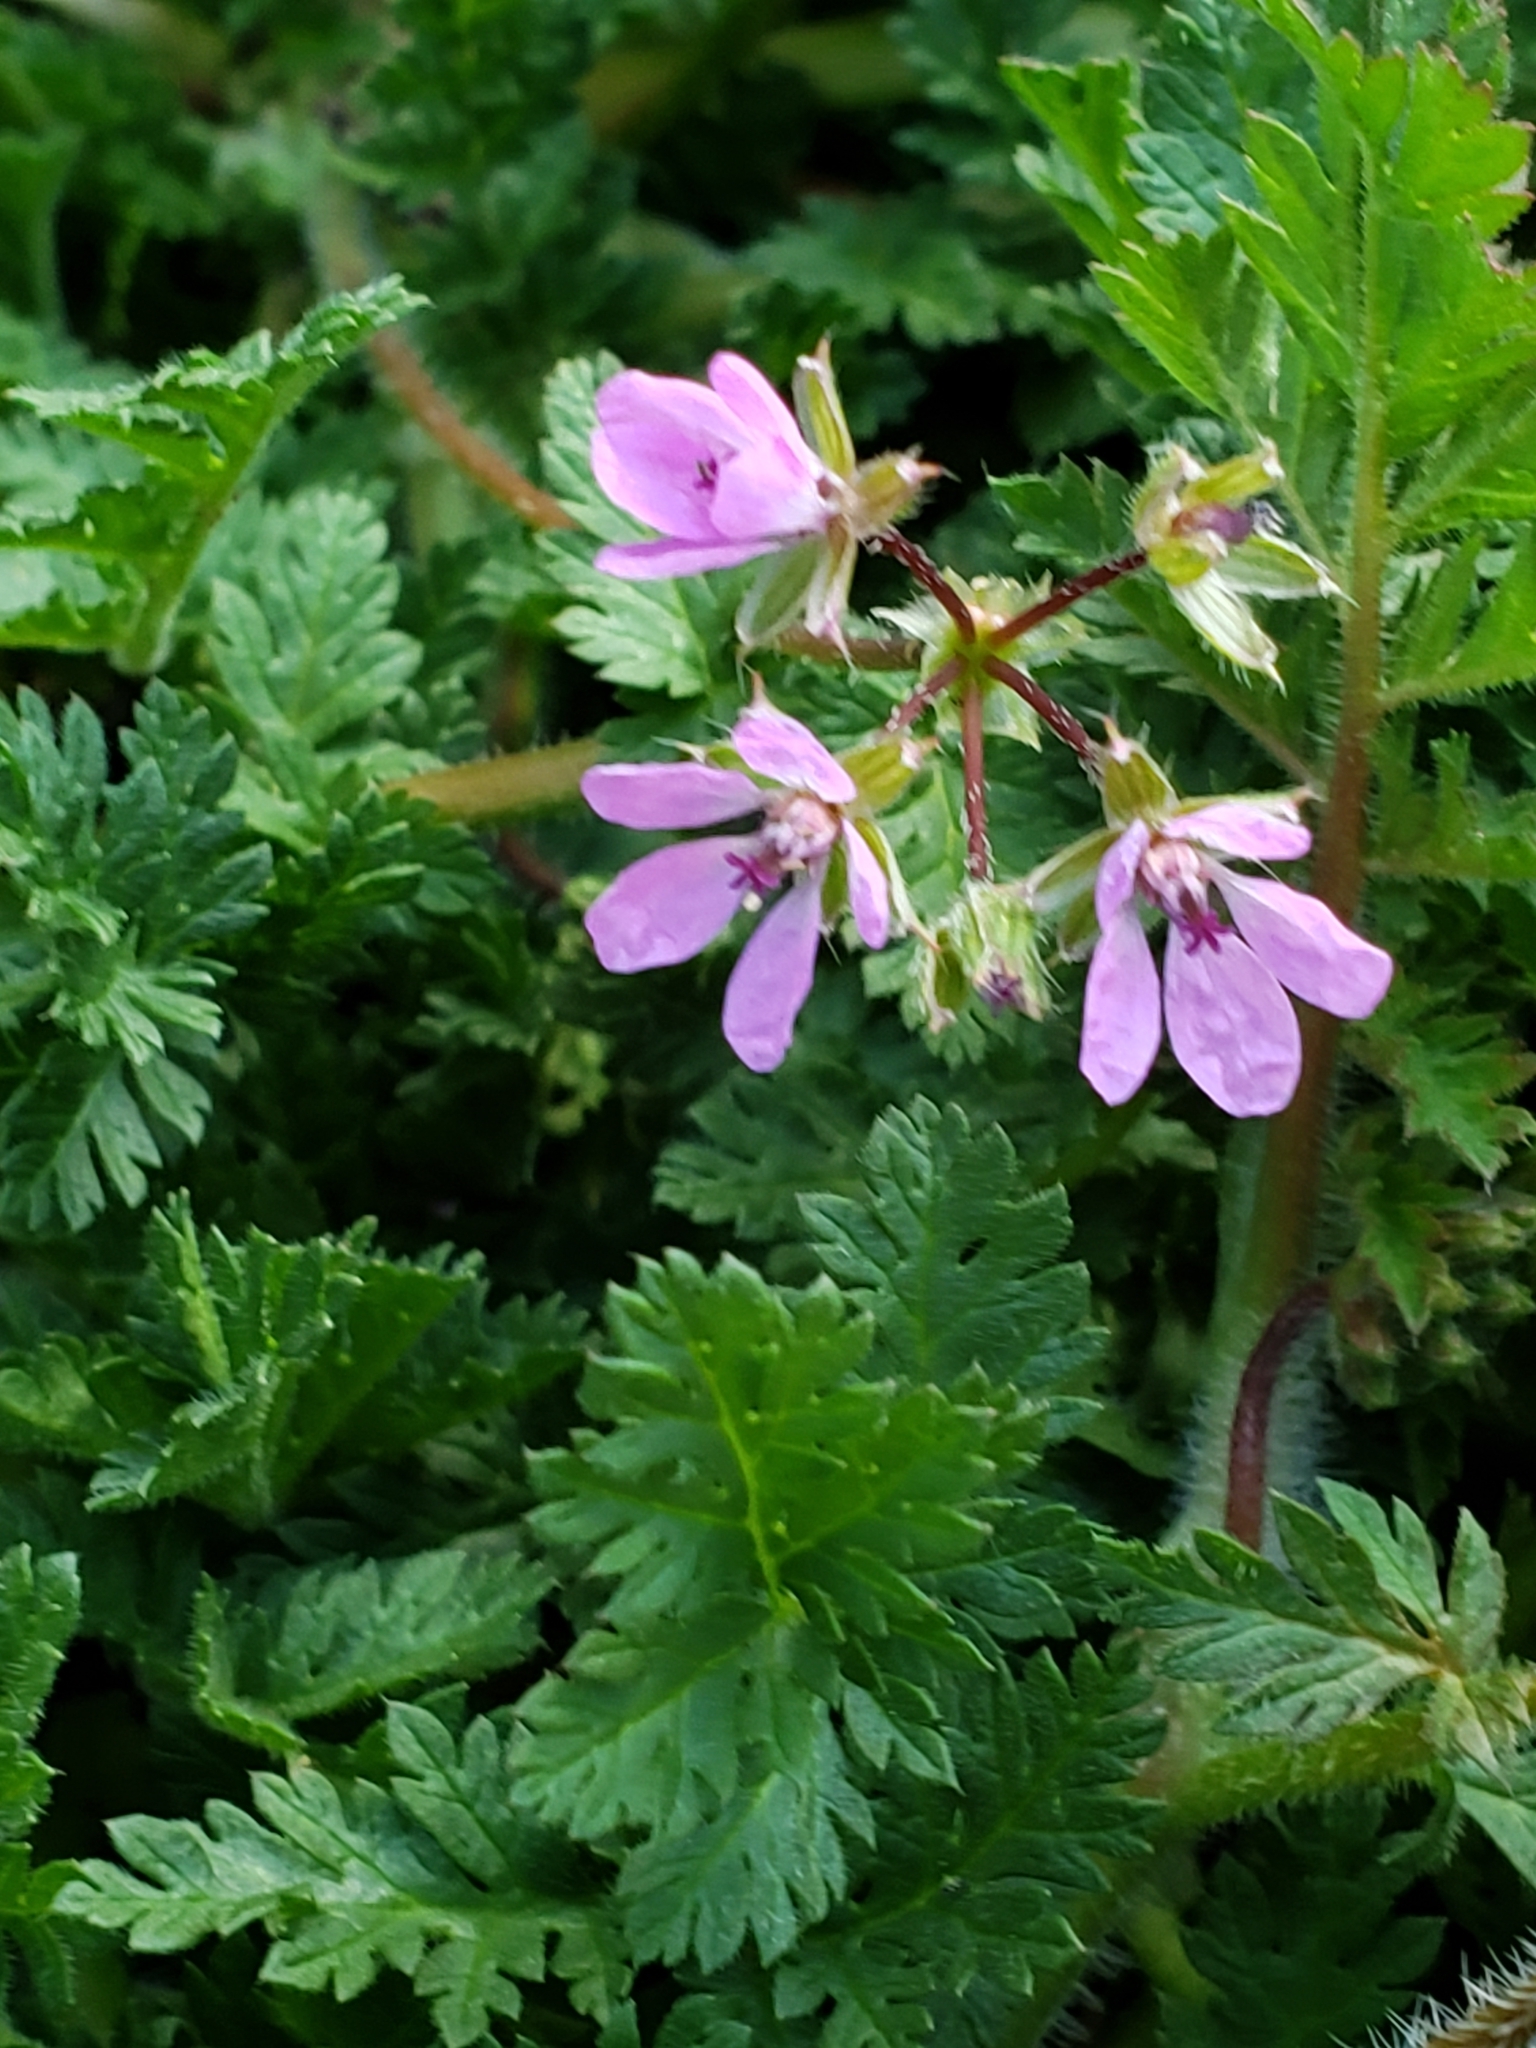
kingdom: Plantae
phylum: Tracheophyta
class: Magnoliopsida
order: Geraniales
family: Geraniaceae
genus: Erodium
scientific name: Erodium cicutarium
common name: Common stork's-bill
